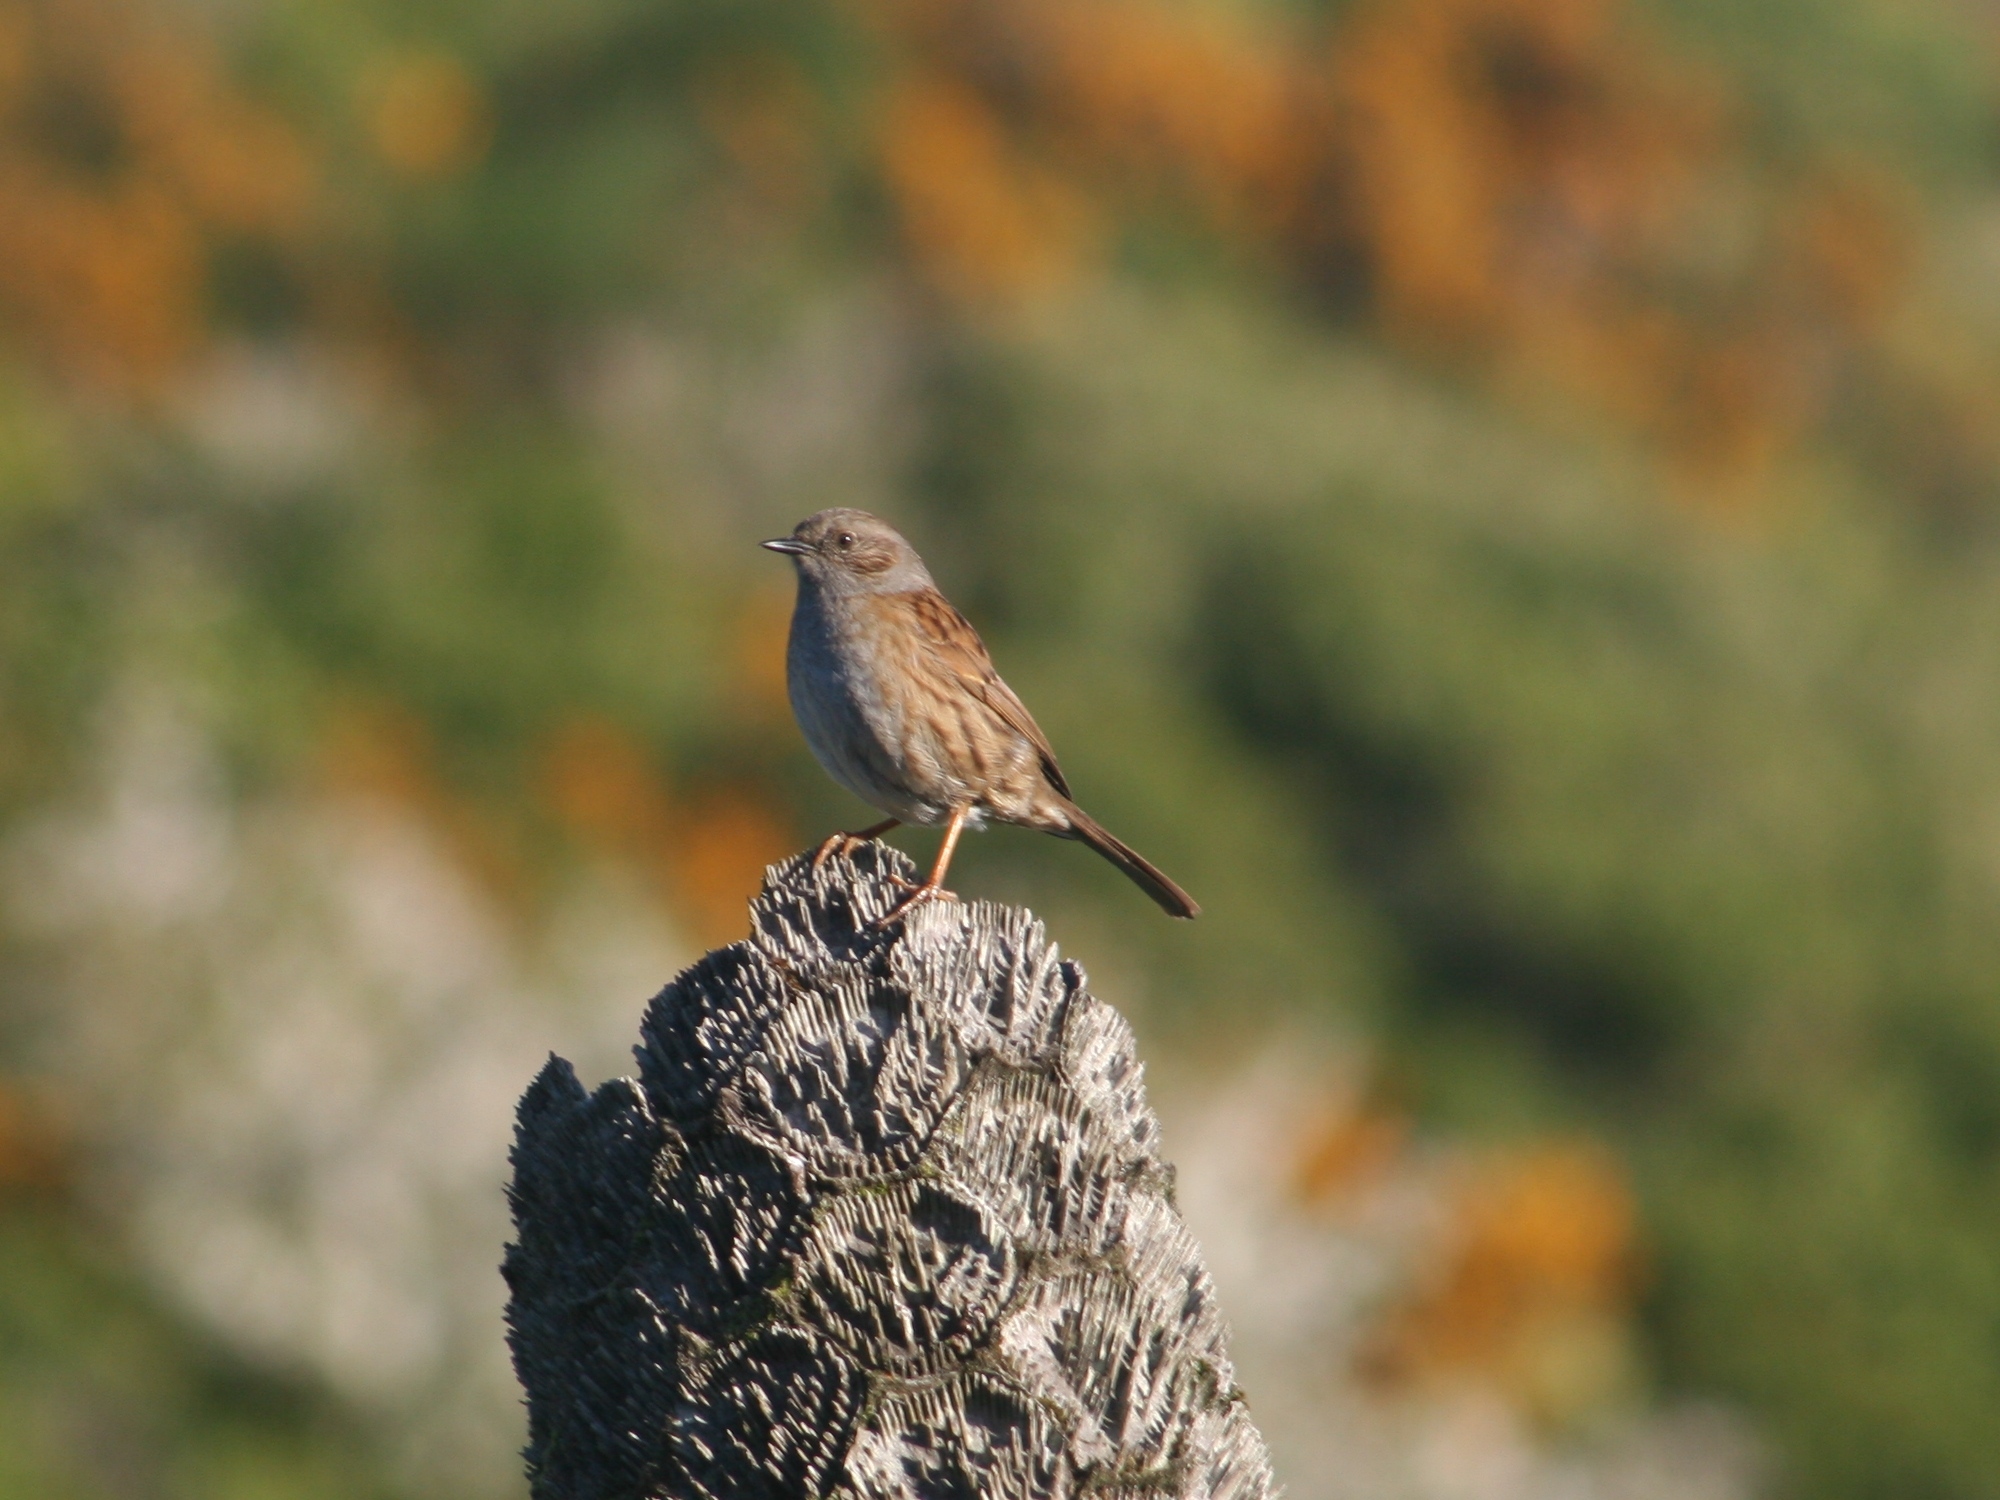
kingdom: Animalia
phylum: Chordata
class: Aves
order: Passeriformes
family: Prunellidae
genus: Prunella
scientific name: Prunella modularis
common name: Dunnock
